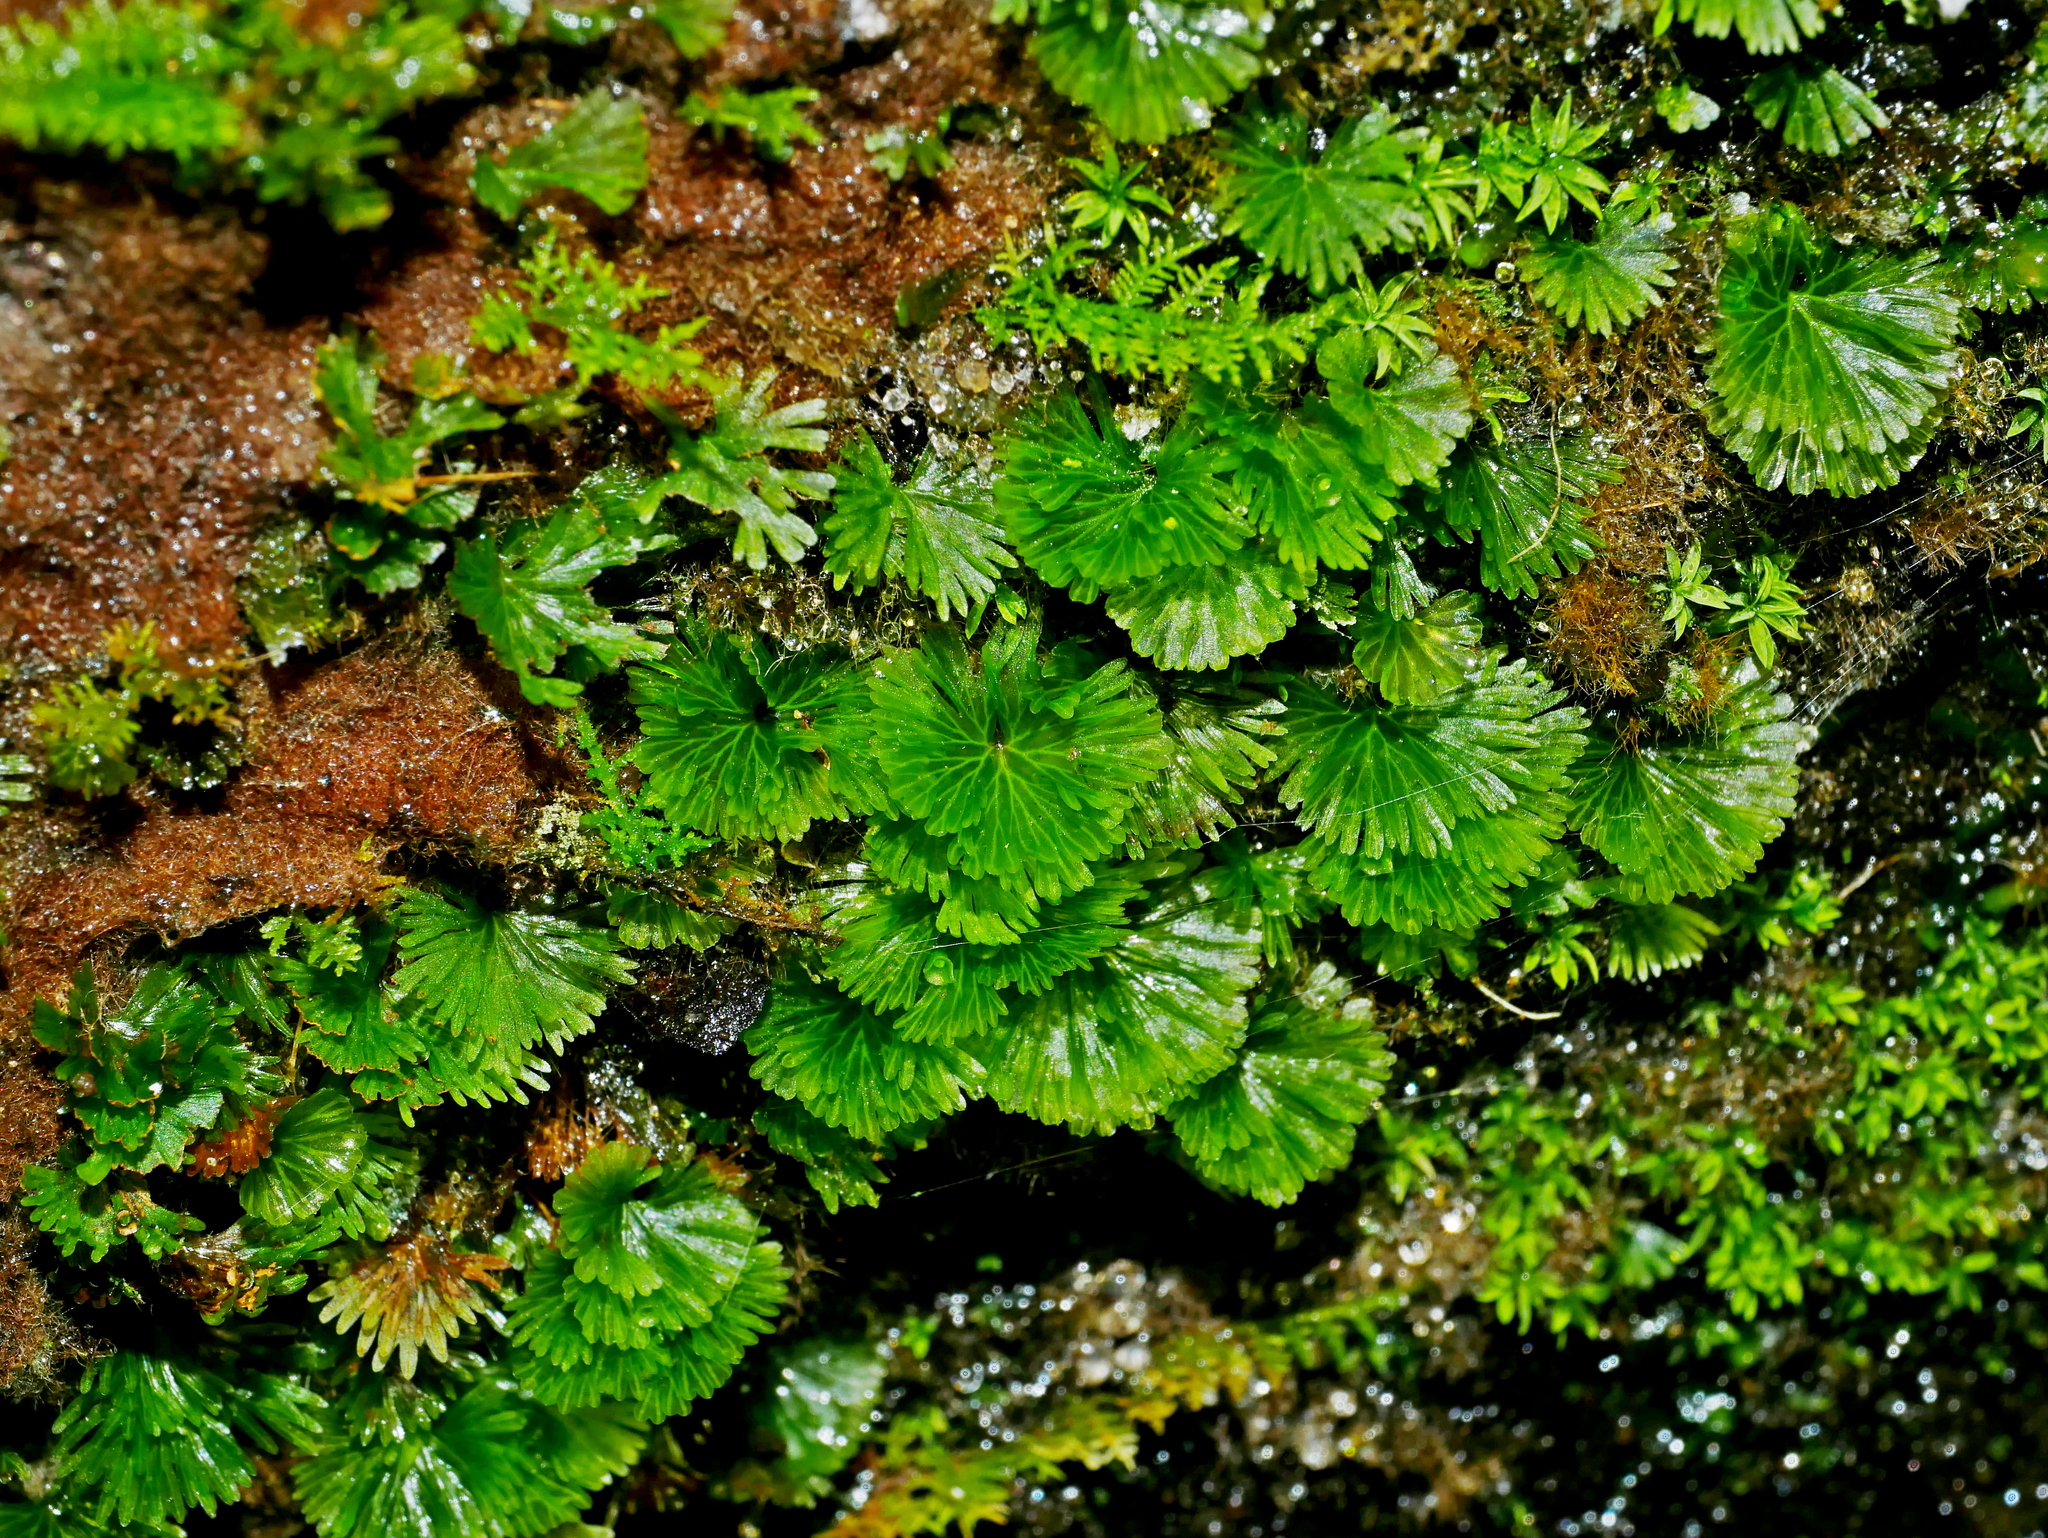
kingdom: Plantae
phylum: Tracheophyta
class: Polypodiopsida
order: Hymenophyllales
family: Hymenophyllaceae
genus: Crepidomanes
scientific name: Crepidomanes parvulum
